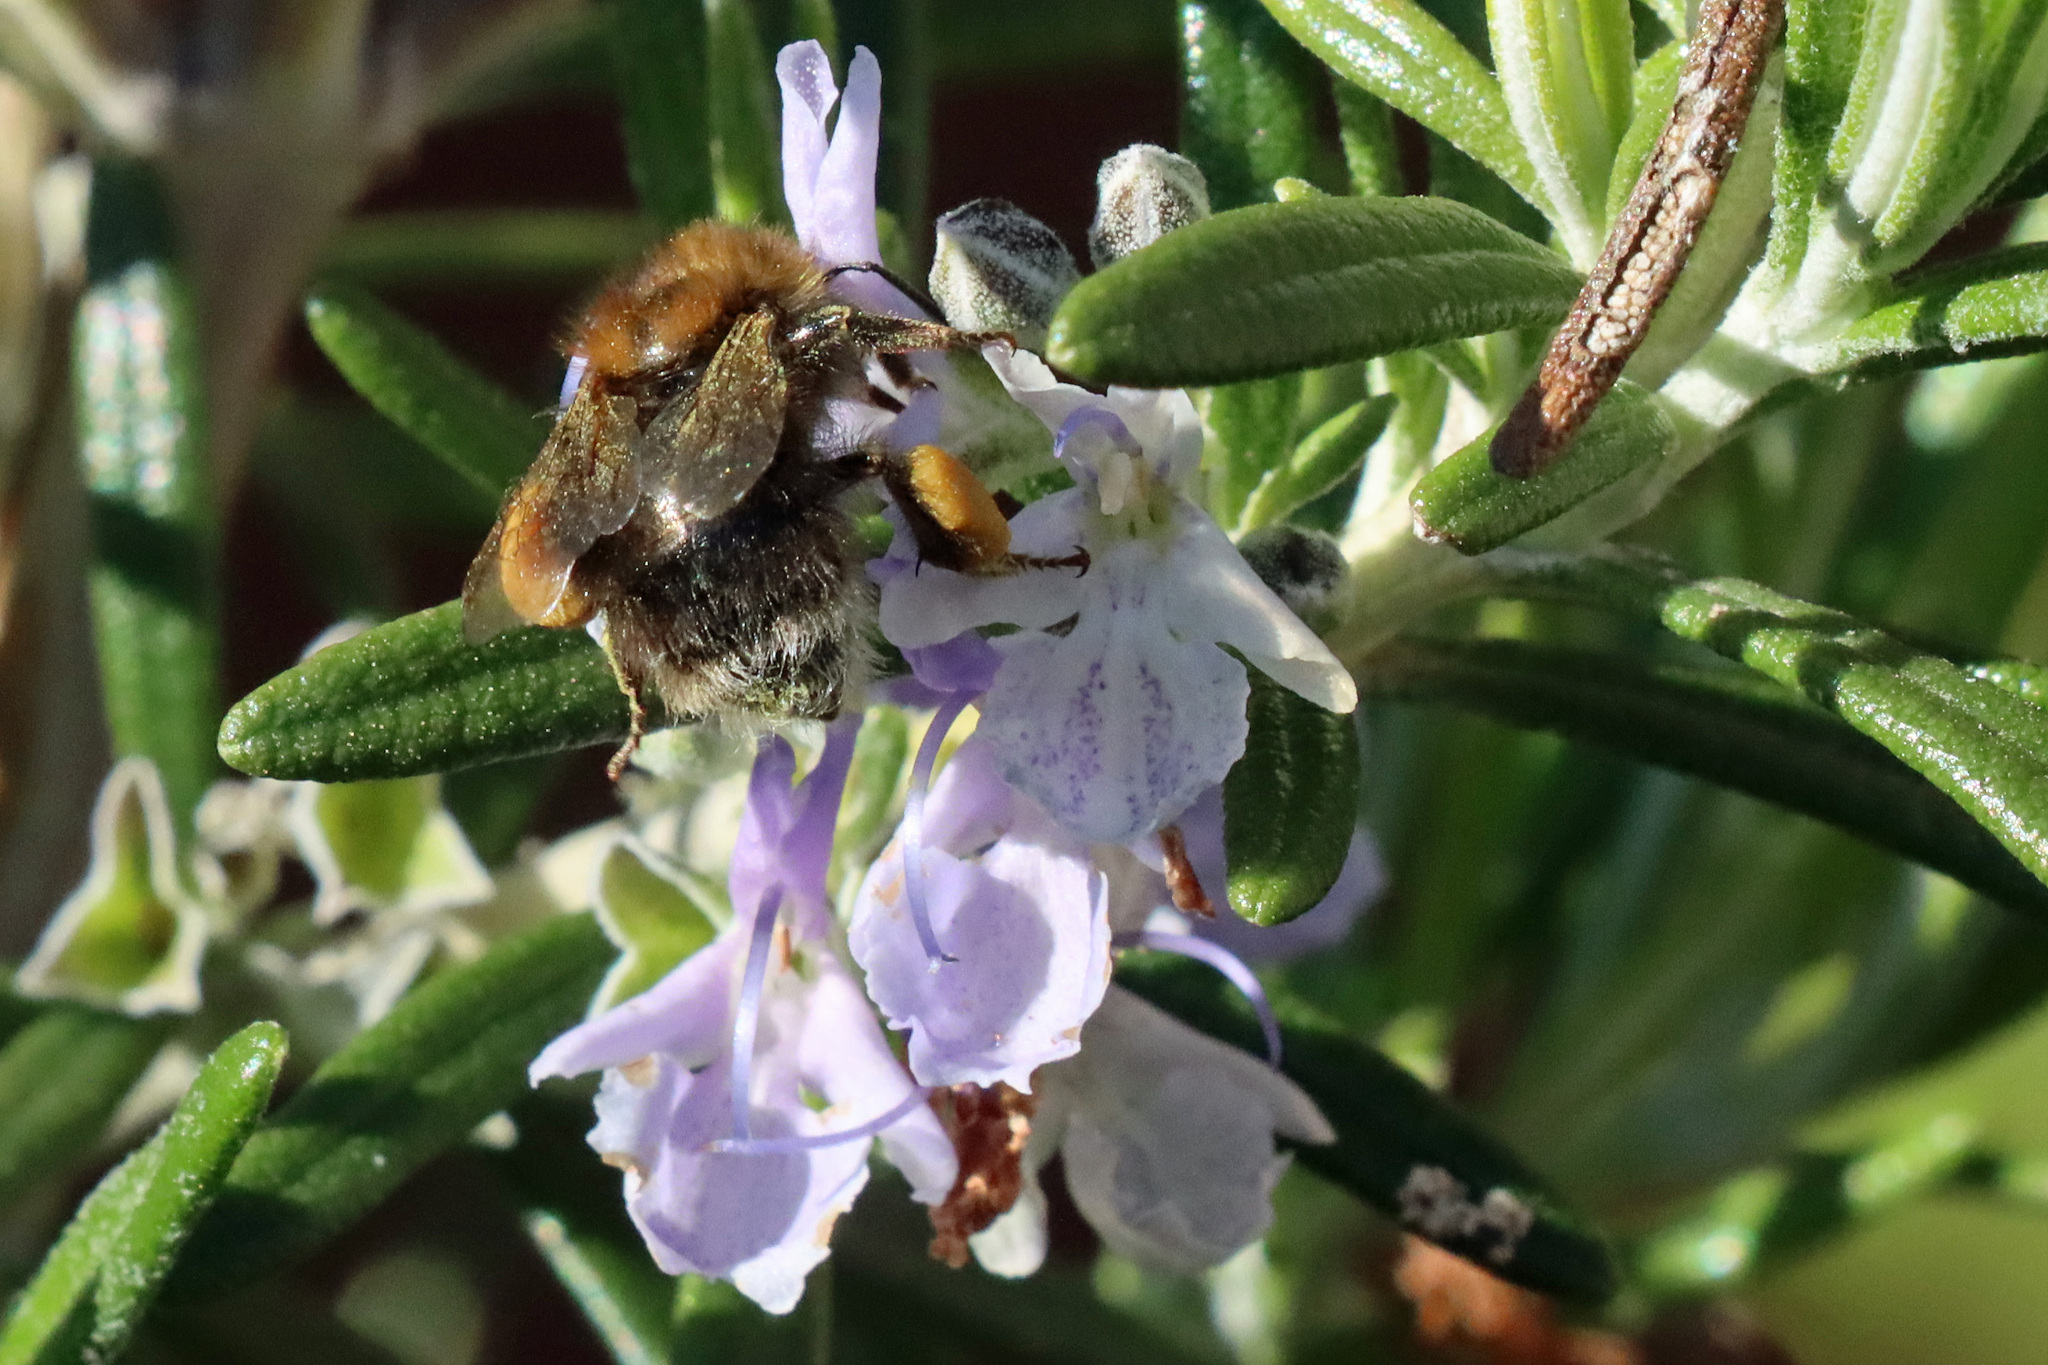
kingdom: Animalia
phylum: Arthropoda
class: Insecta
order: Hymenoptera
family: Apidae
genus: Bombus
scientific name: Bombus hypnorum
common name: New garden bumblebee
